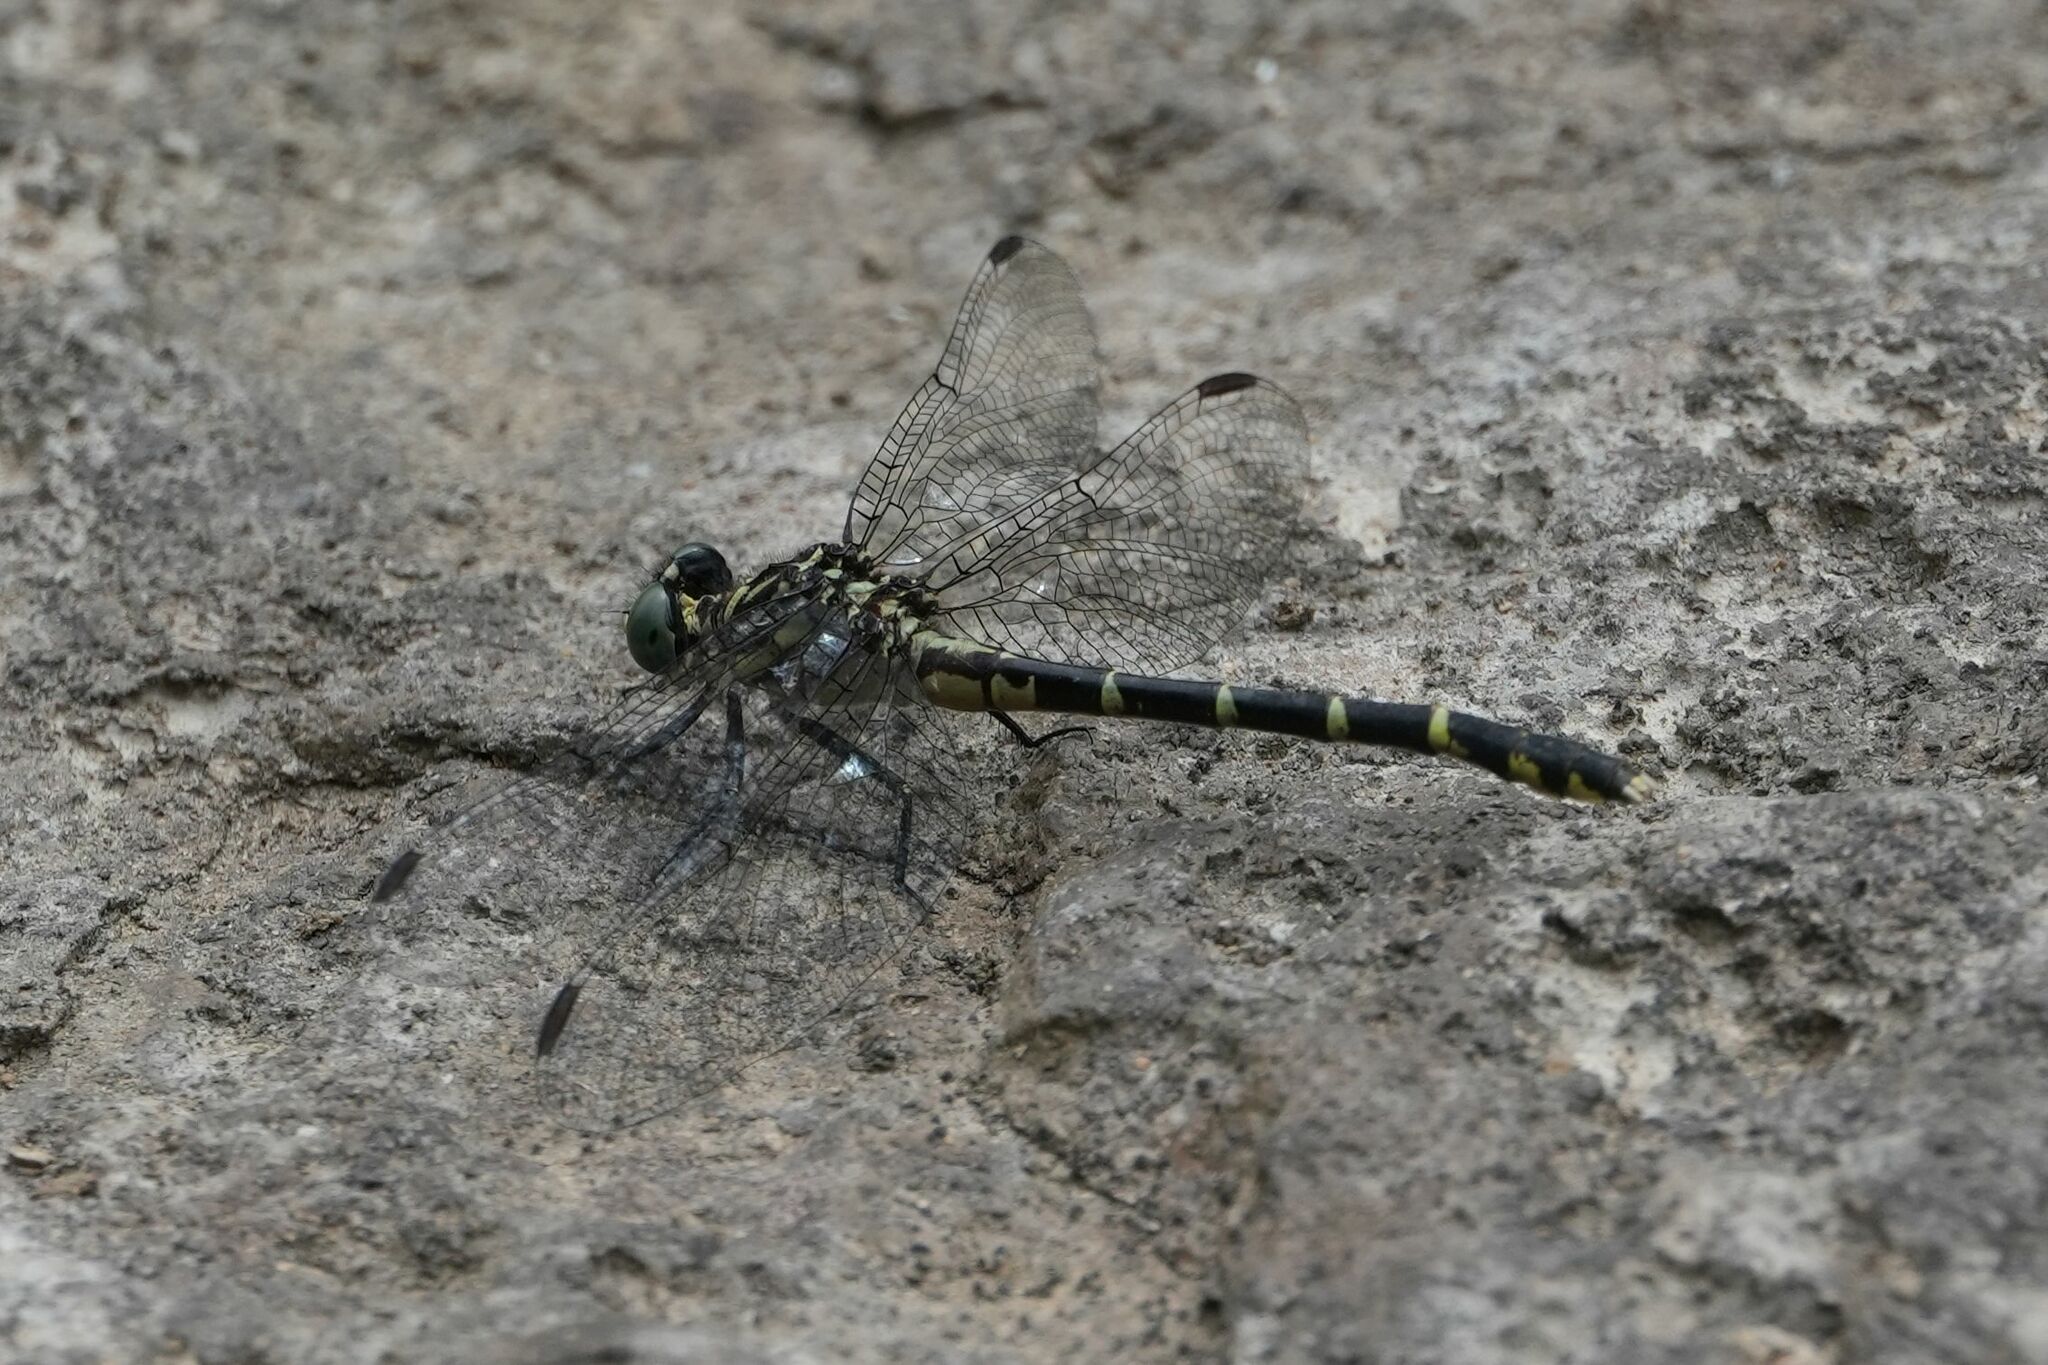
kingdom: Animalia
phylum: Arthropoda
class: Insecta
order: Odonata
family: Gomphidae
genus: Stylogomphus
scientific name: Stylogomphus albistylus
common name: Eastern least clubtail
